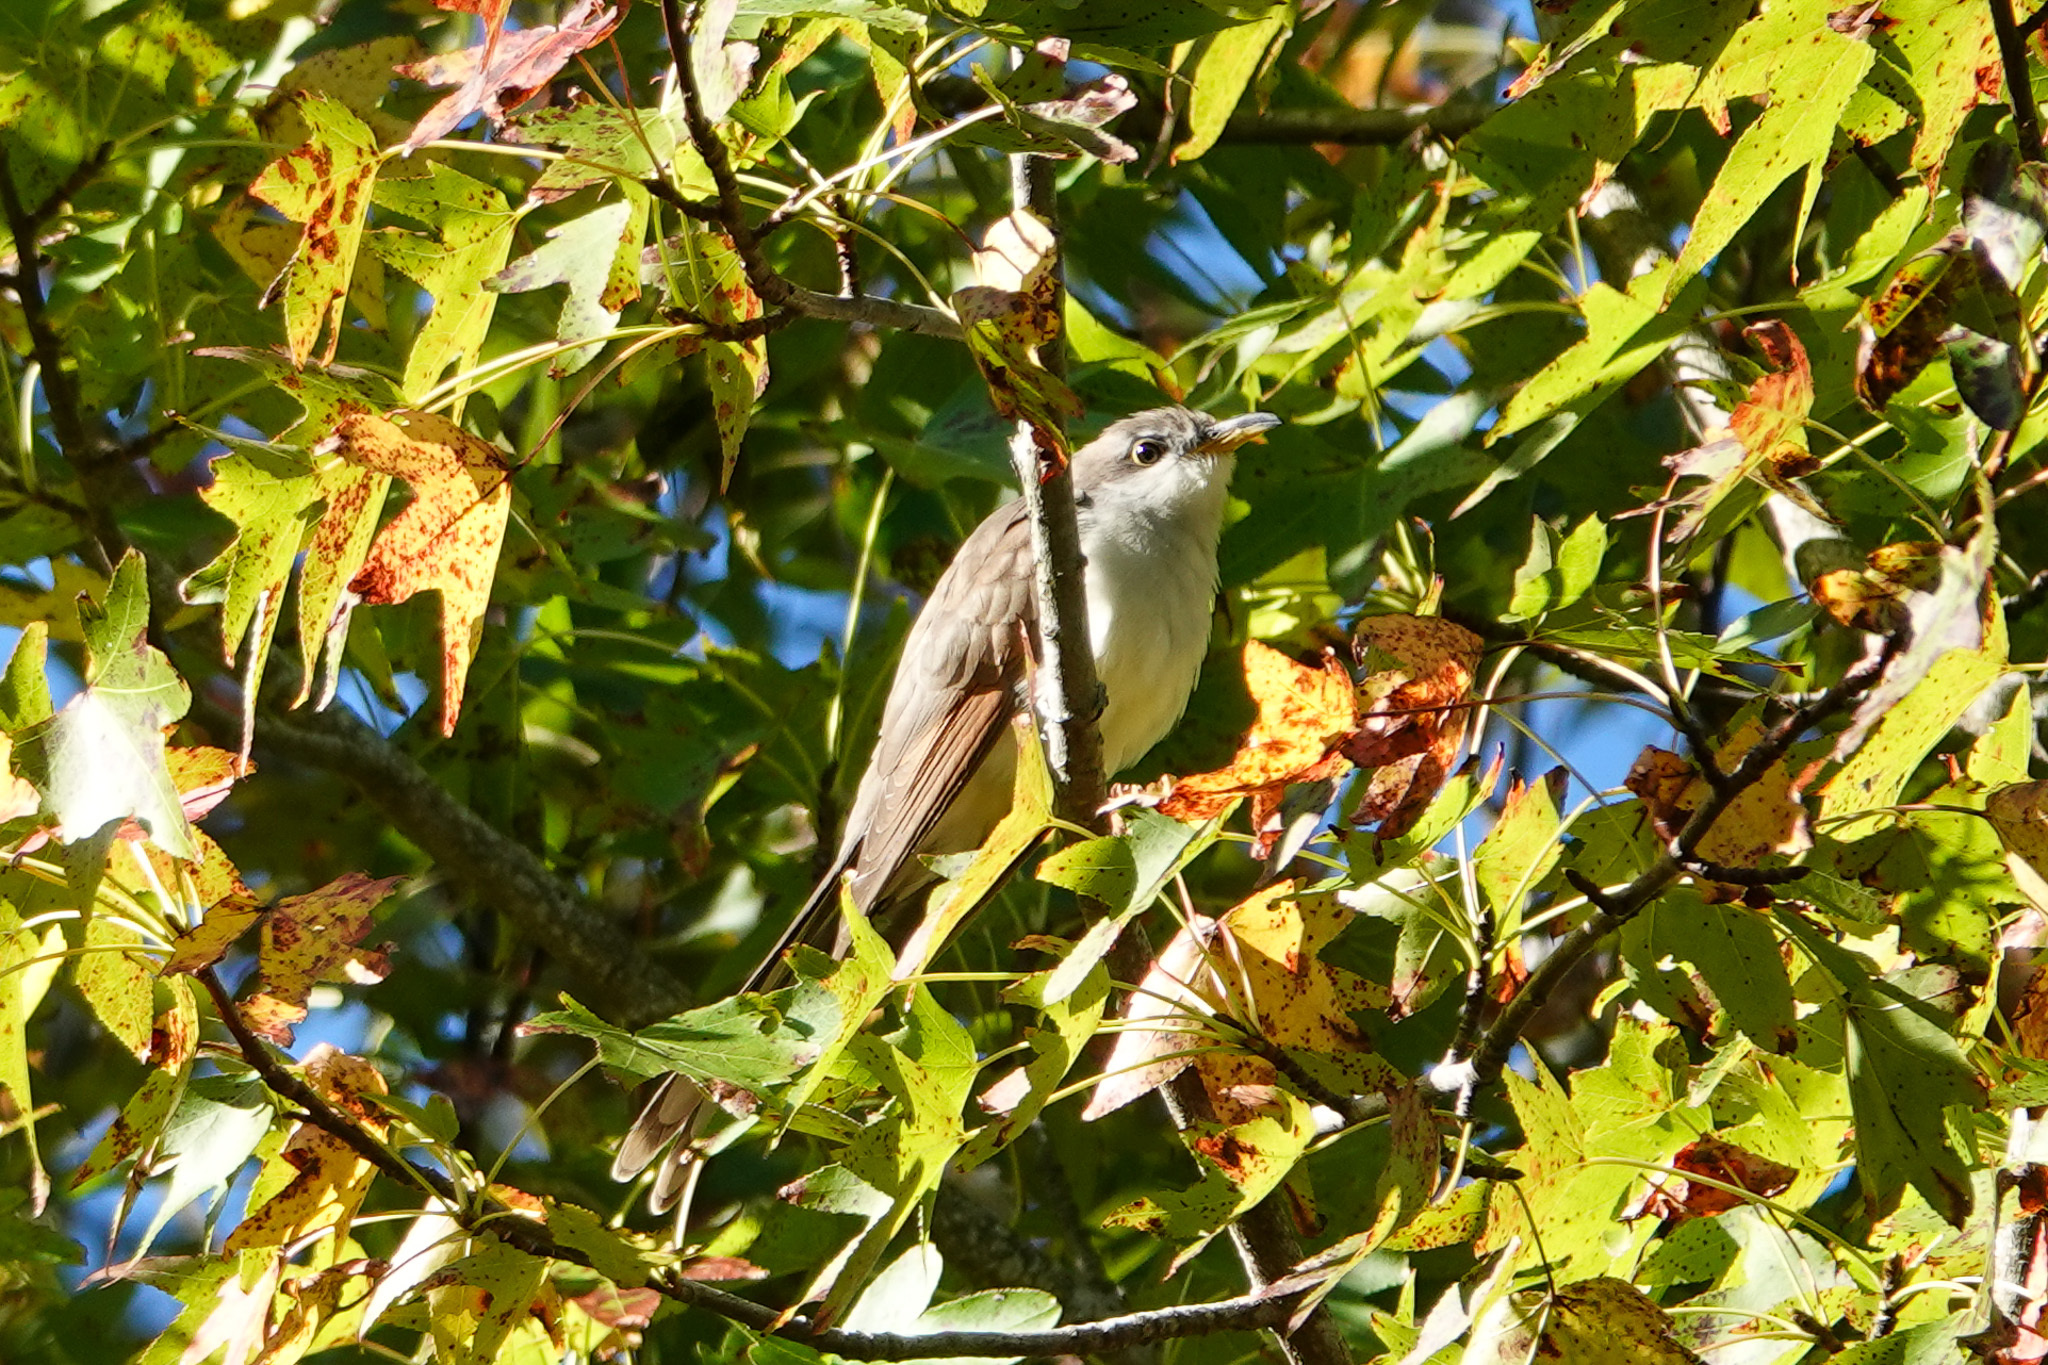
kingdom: Animalia
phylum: Chordata
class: Aves
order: Cuculiformes
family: Cuculidae
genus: Coccyzus
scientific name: Coccyzus americanus
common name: Yellow-billed cuckoo
